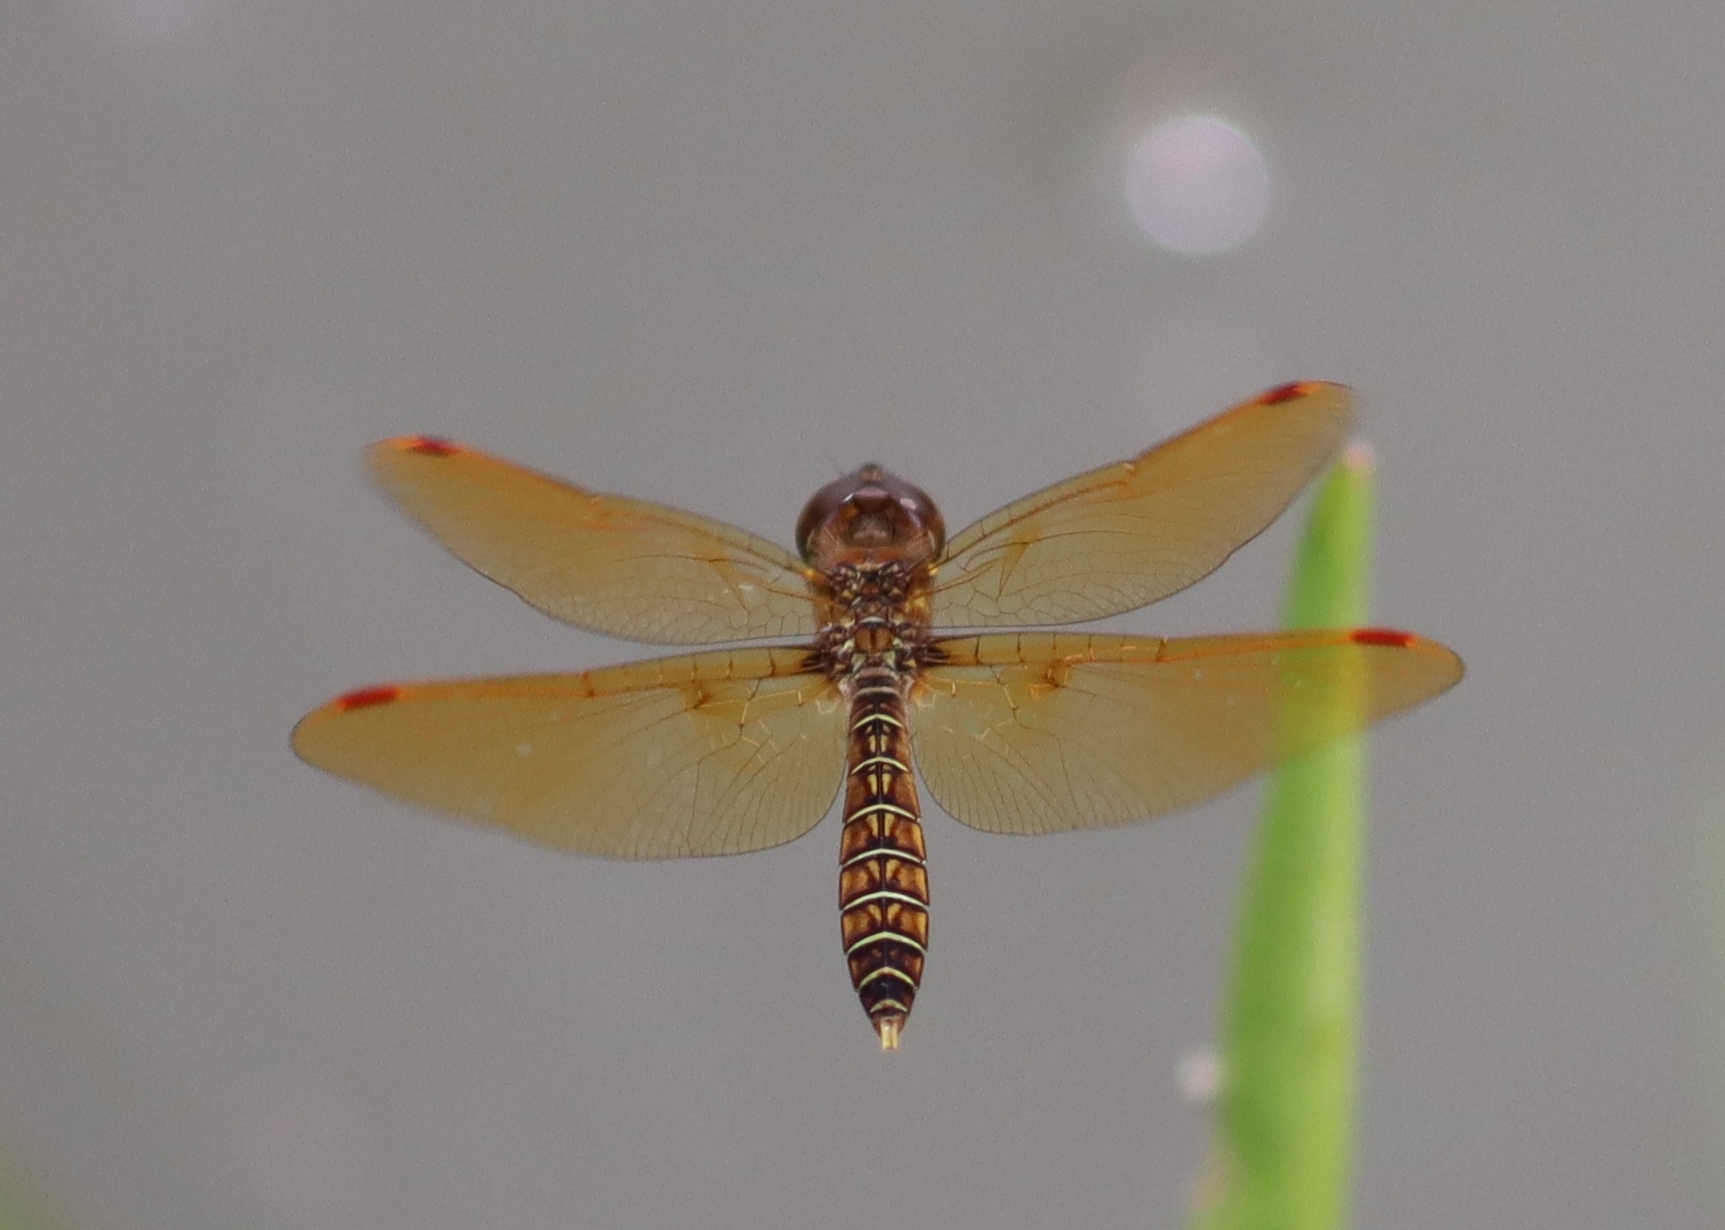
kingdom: Animalia
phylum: Arthropoda
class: Insecta
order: Odonata
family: Libellulidae
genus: Perithemis
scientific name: Perithemis tenera
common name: Eastern amberwing
